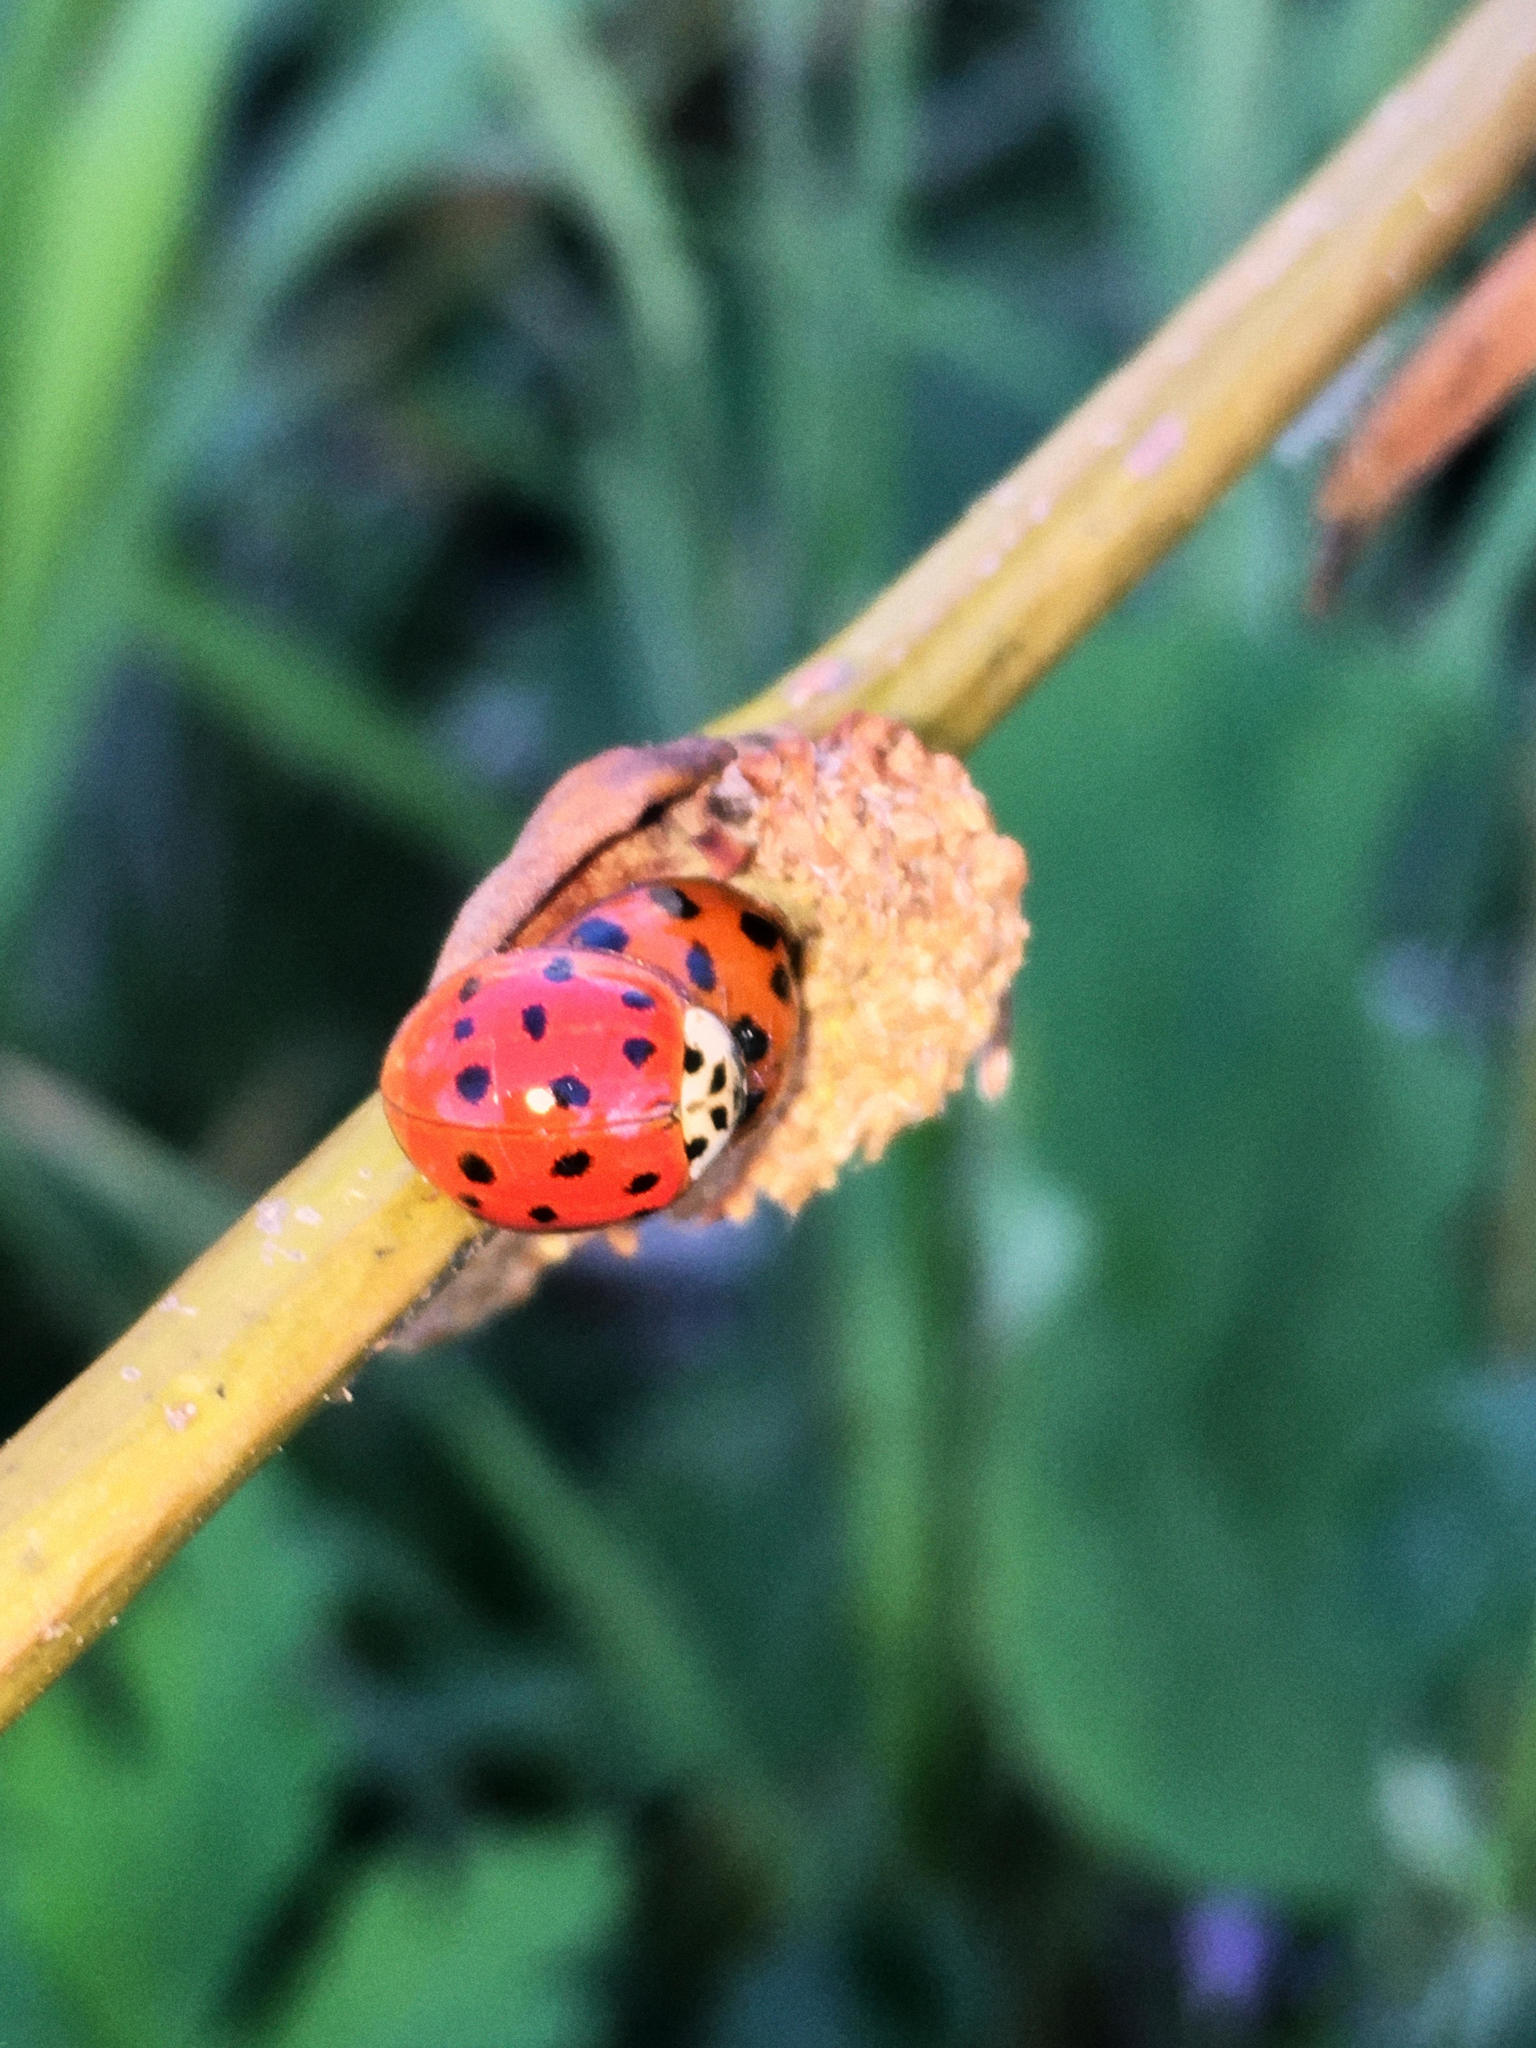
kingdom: Animalia
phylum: Arthropoda
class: Insecta
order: Coleoptera
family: Coccinellidae
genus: Harmonia
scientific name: Harmonia axyridis
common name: Harlequin ladybird
